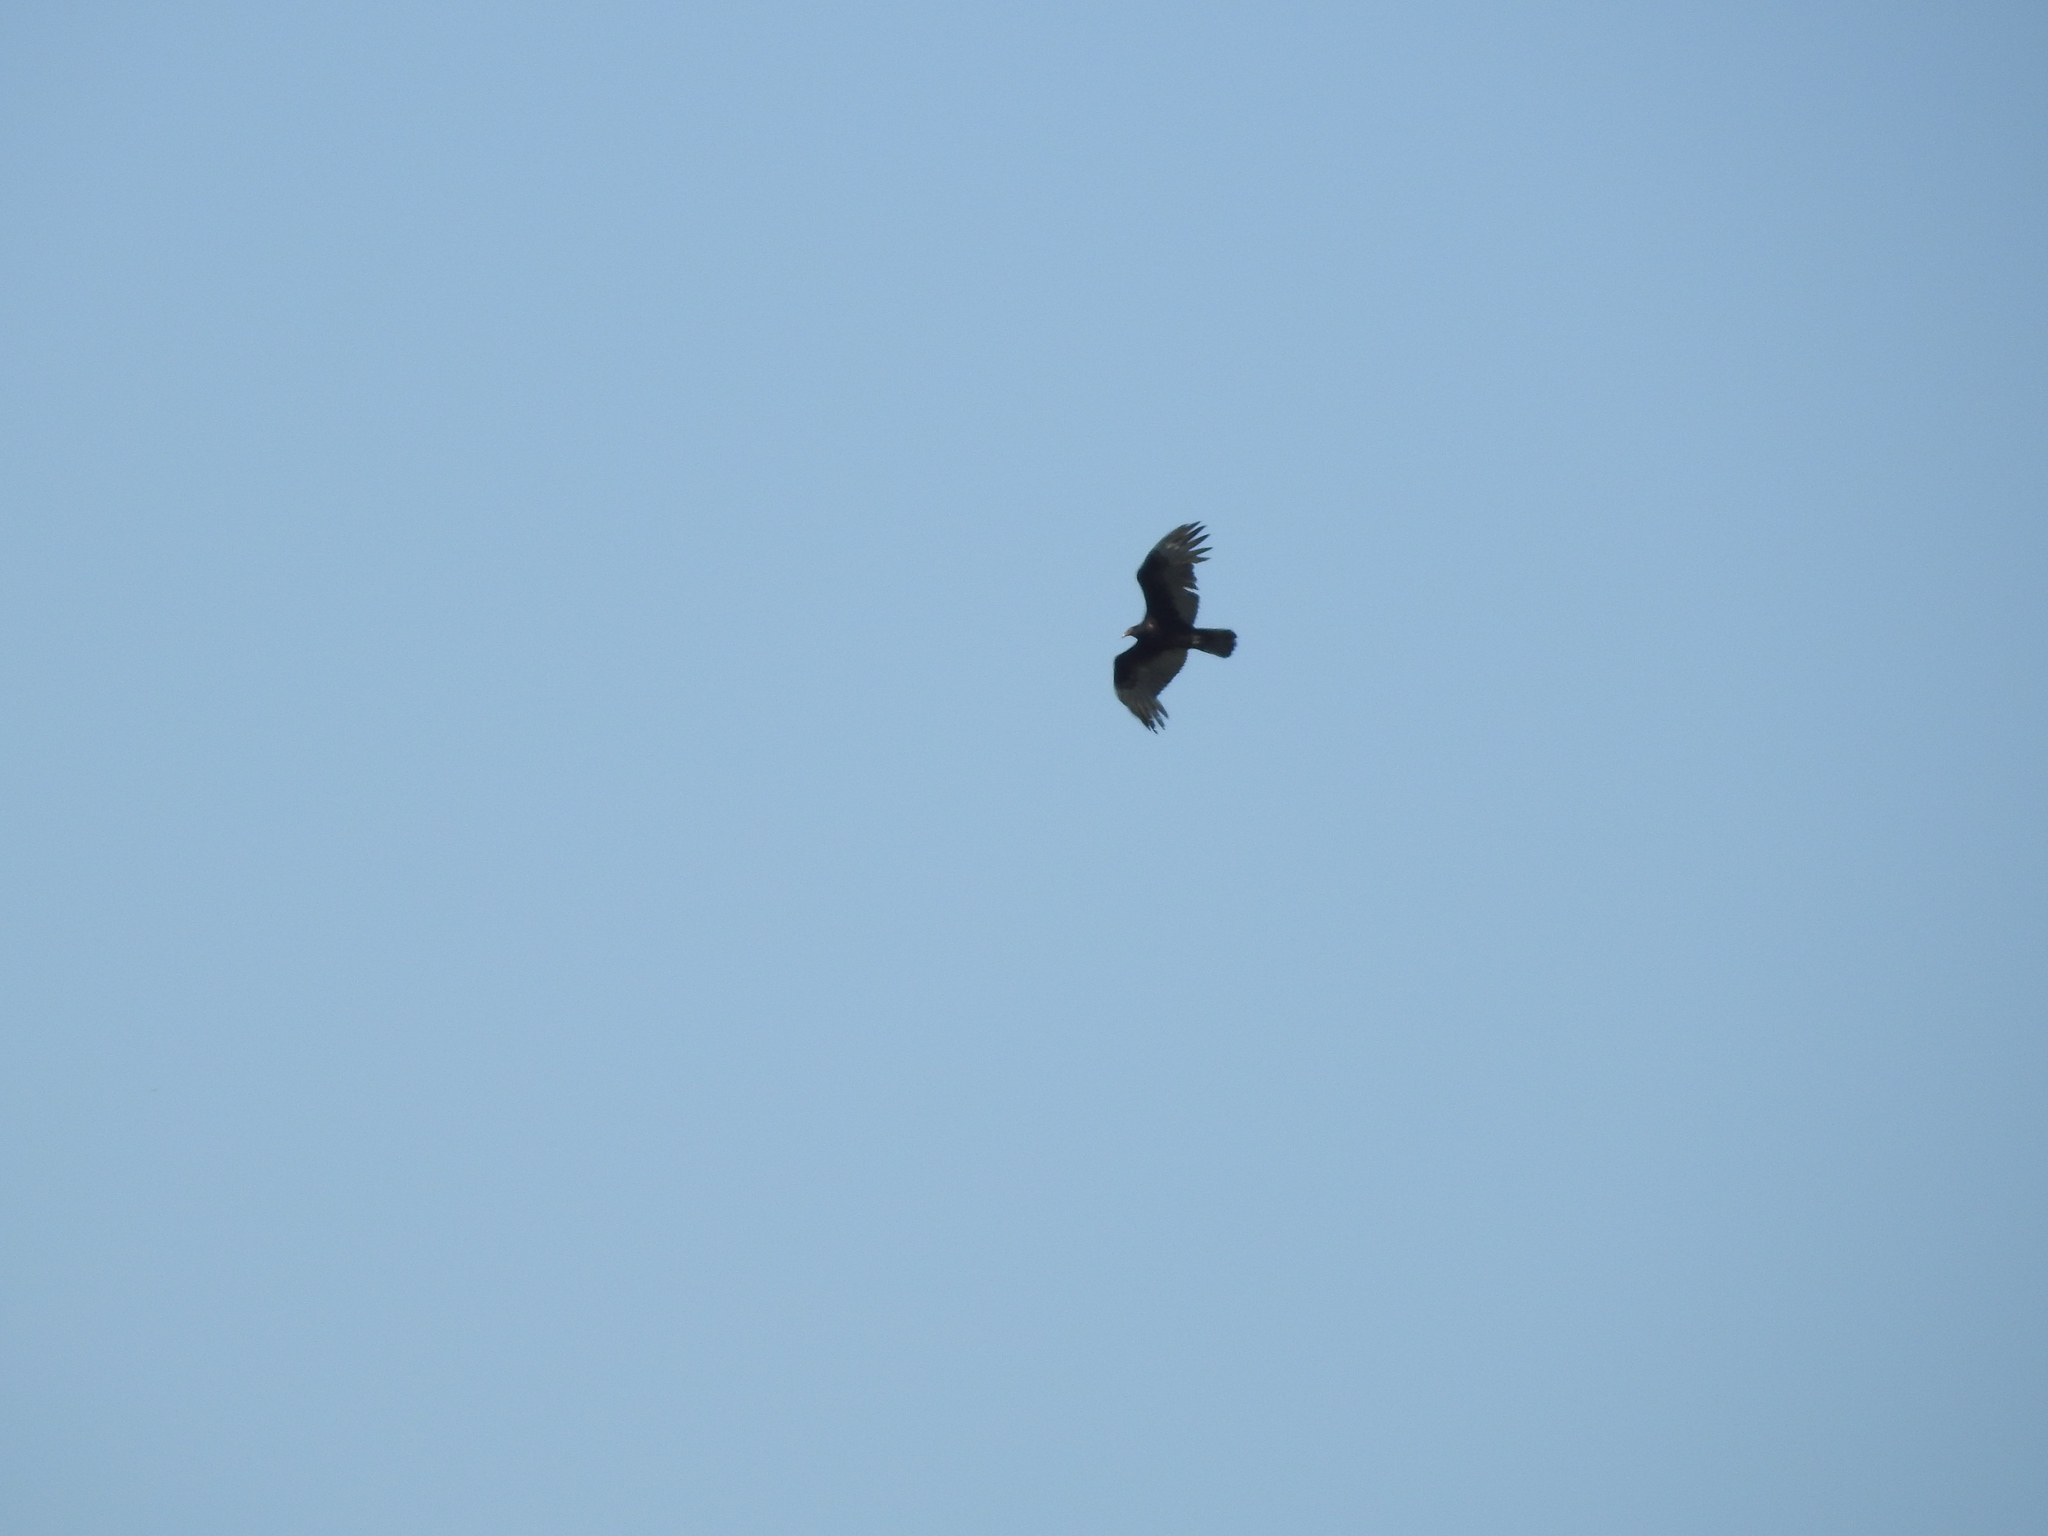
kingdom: Animalia
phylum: Chordata
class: Aves
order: Accipitriformes
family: Cathartidae
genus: Cathartes
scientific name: Cathartes aura
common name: Turkey vulture
